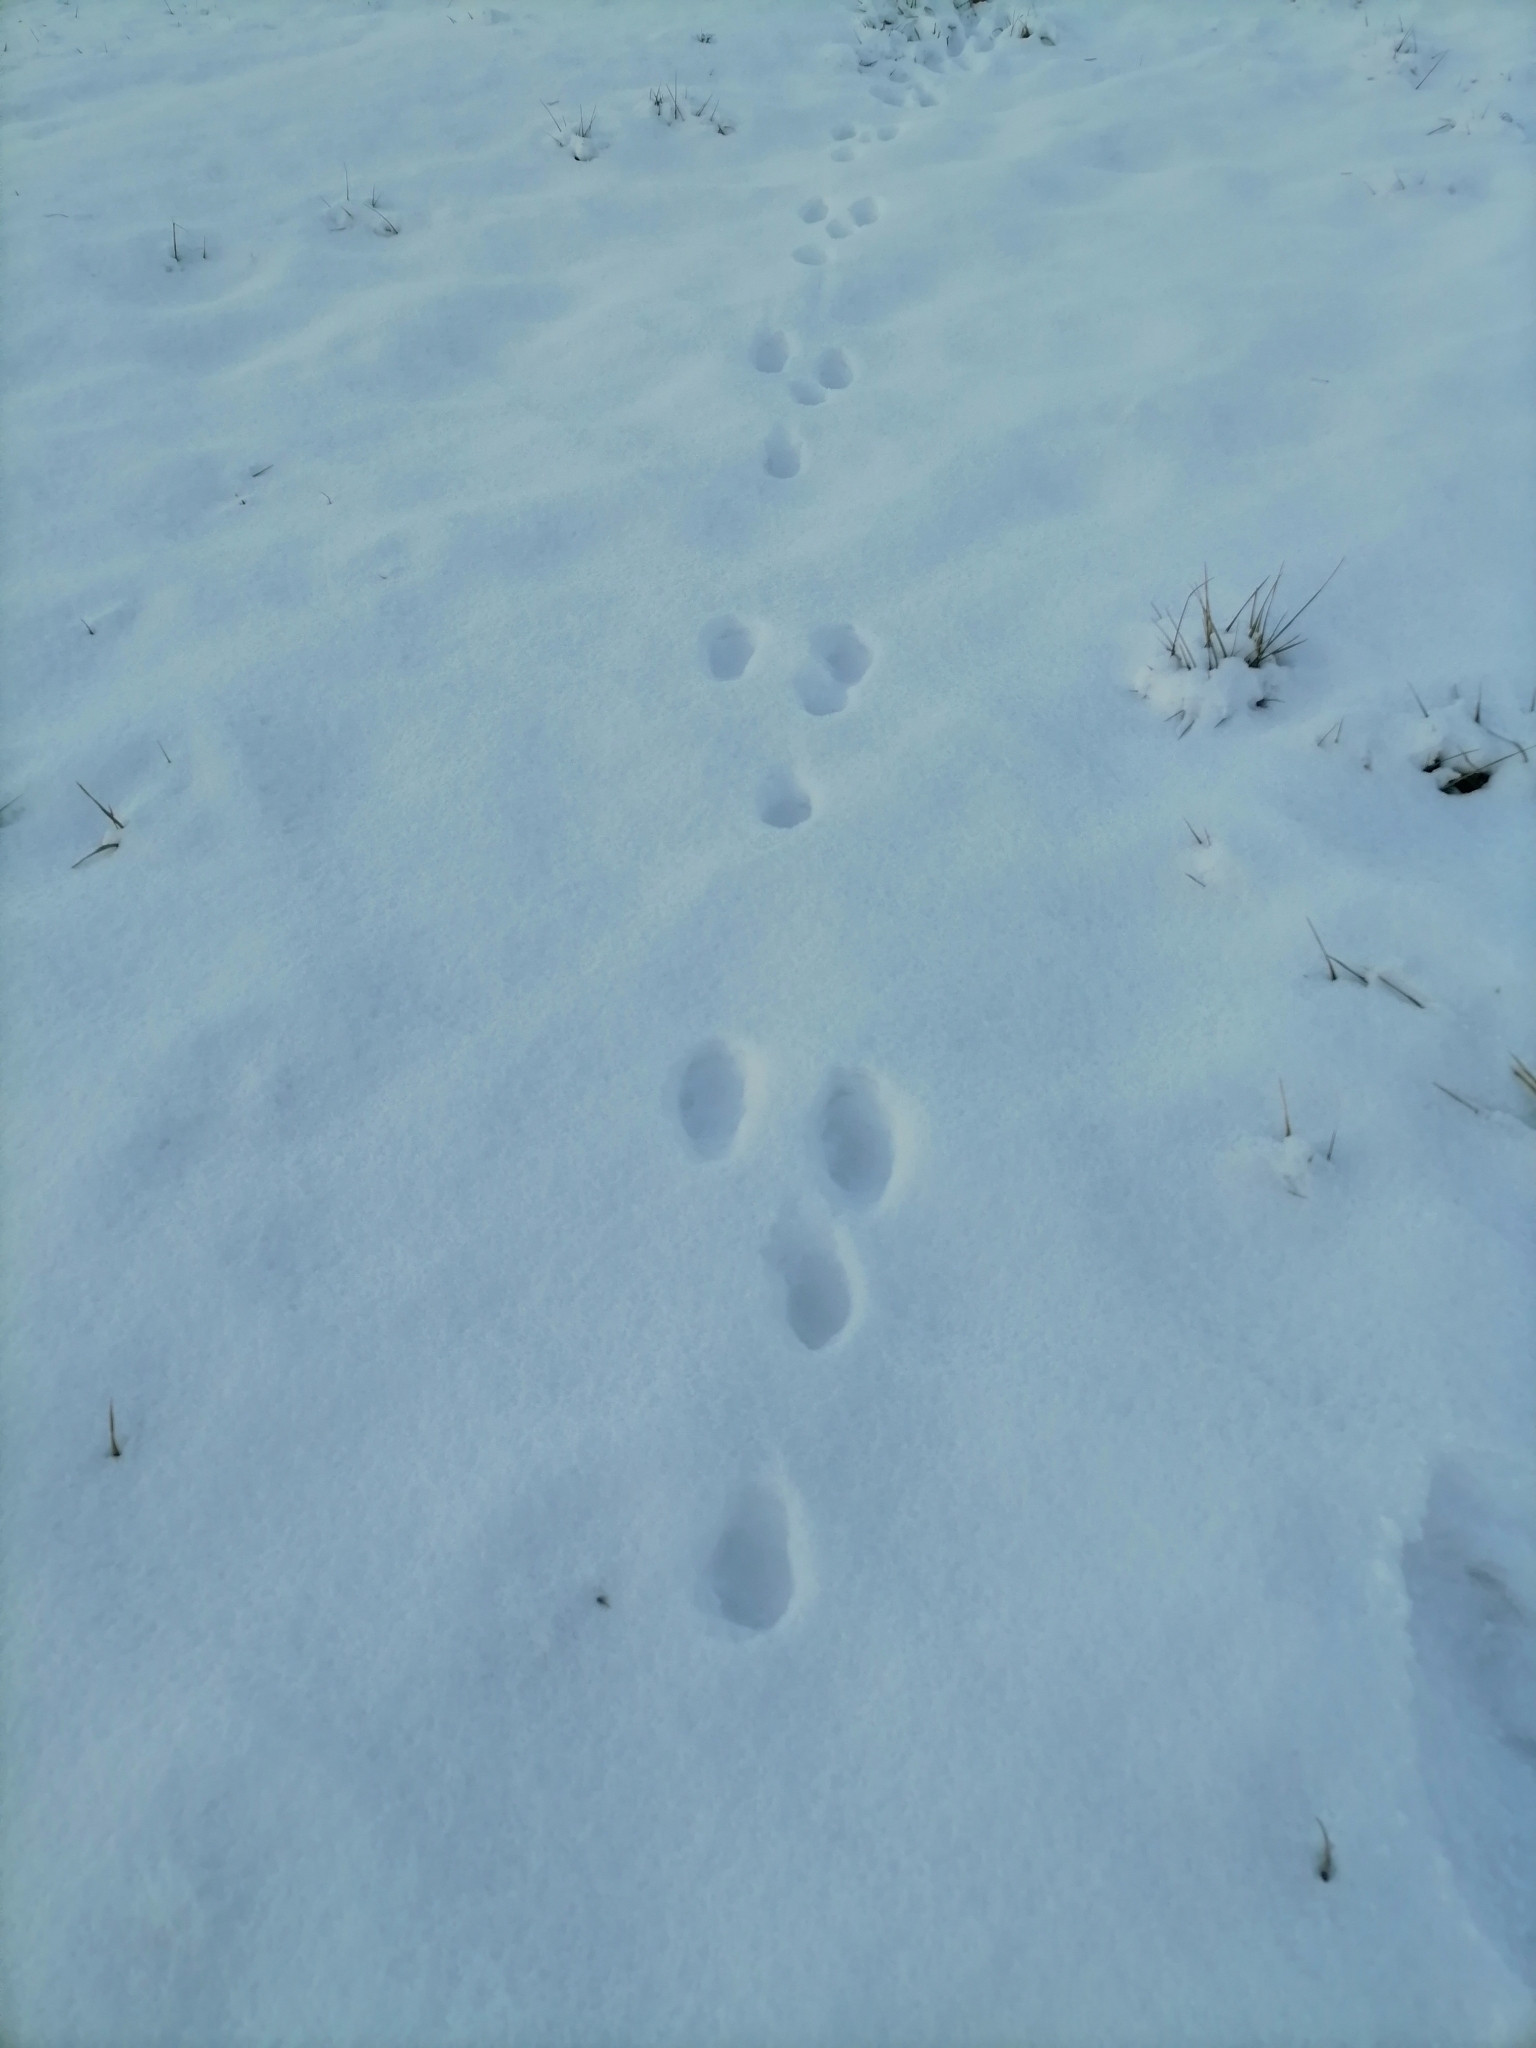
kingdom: Animalia
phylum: Chordata
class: Mammalia
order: Lagomorpha
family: Leporidae
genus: Lepus
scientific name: Lepus europaeus
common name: European hare
